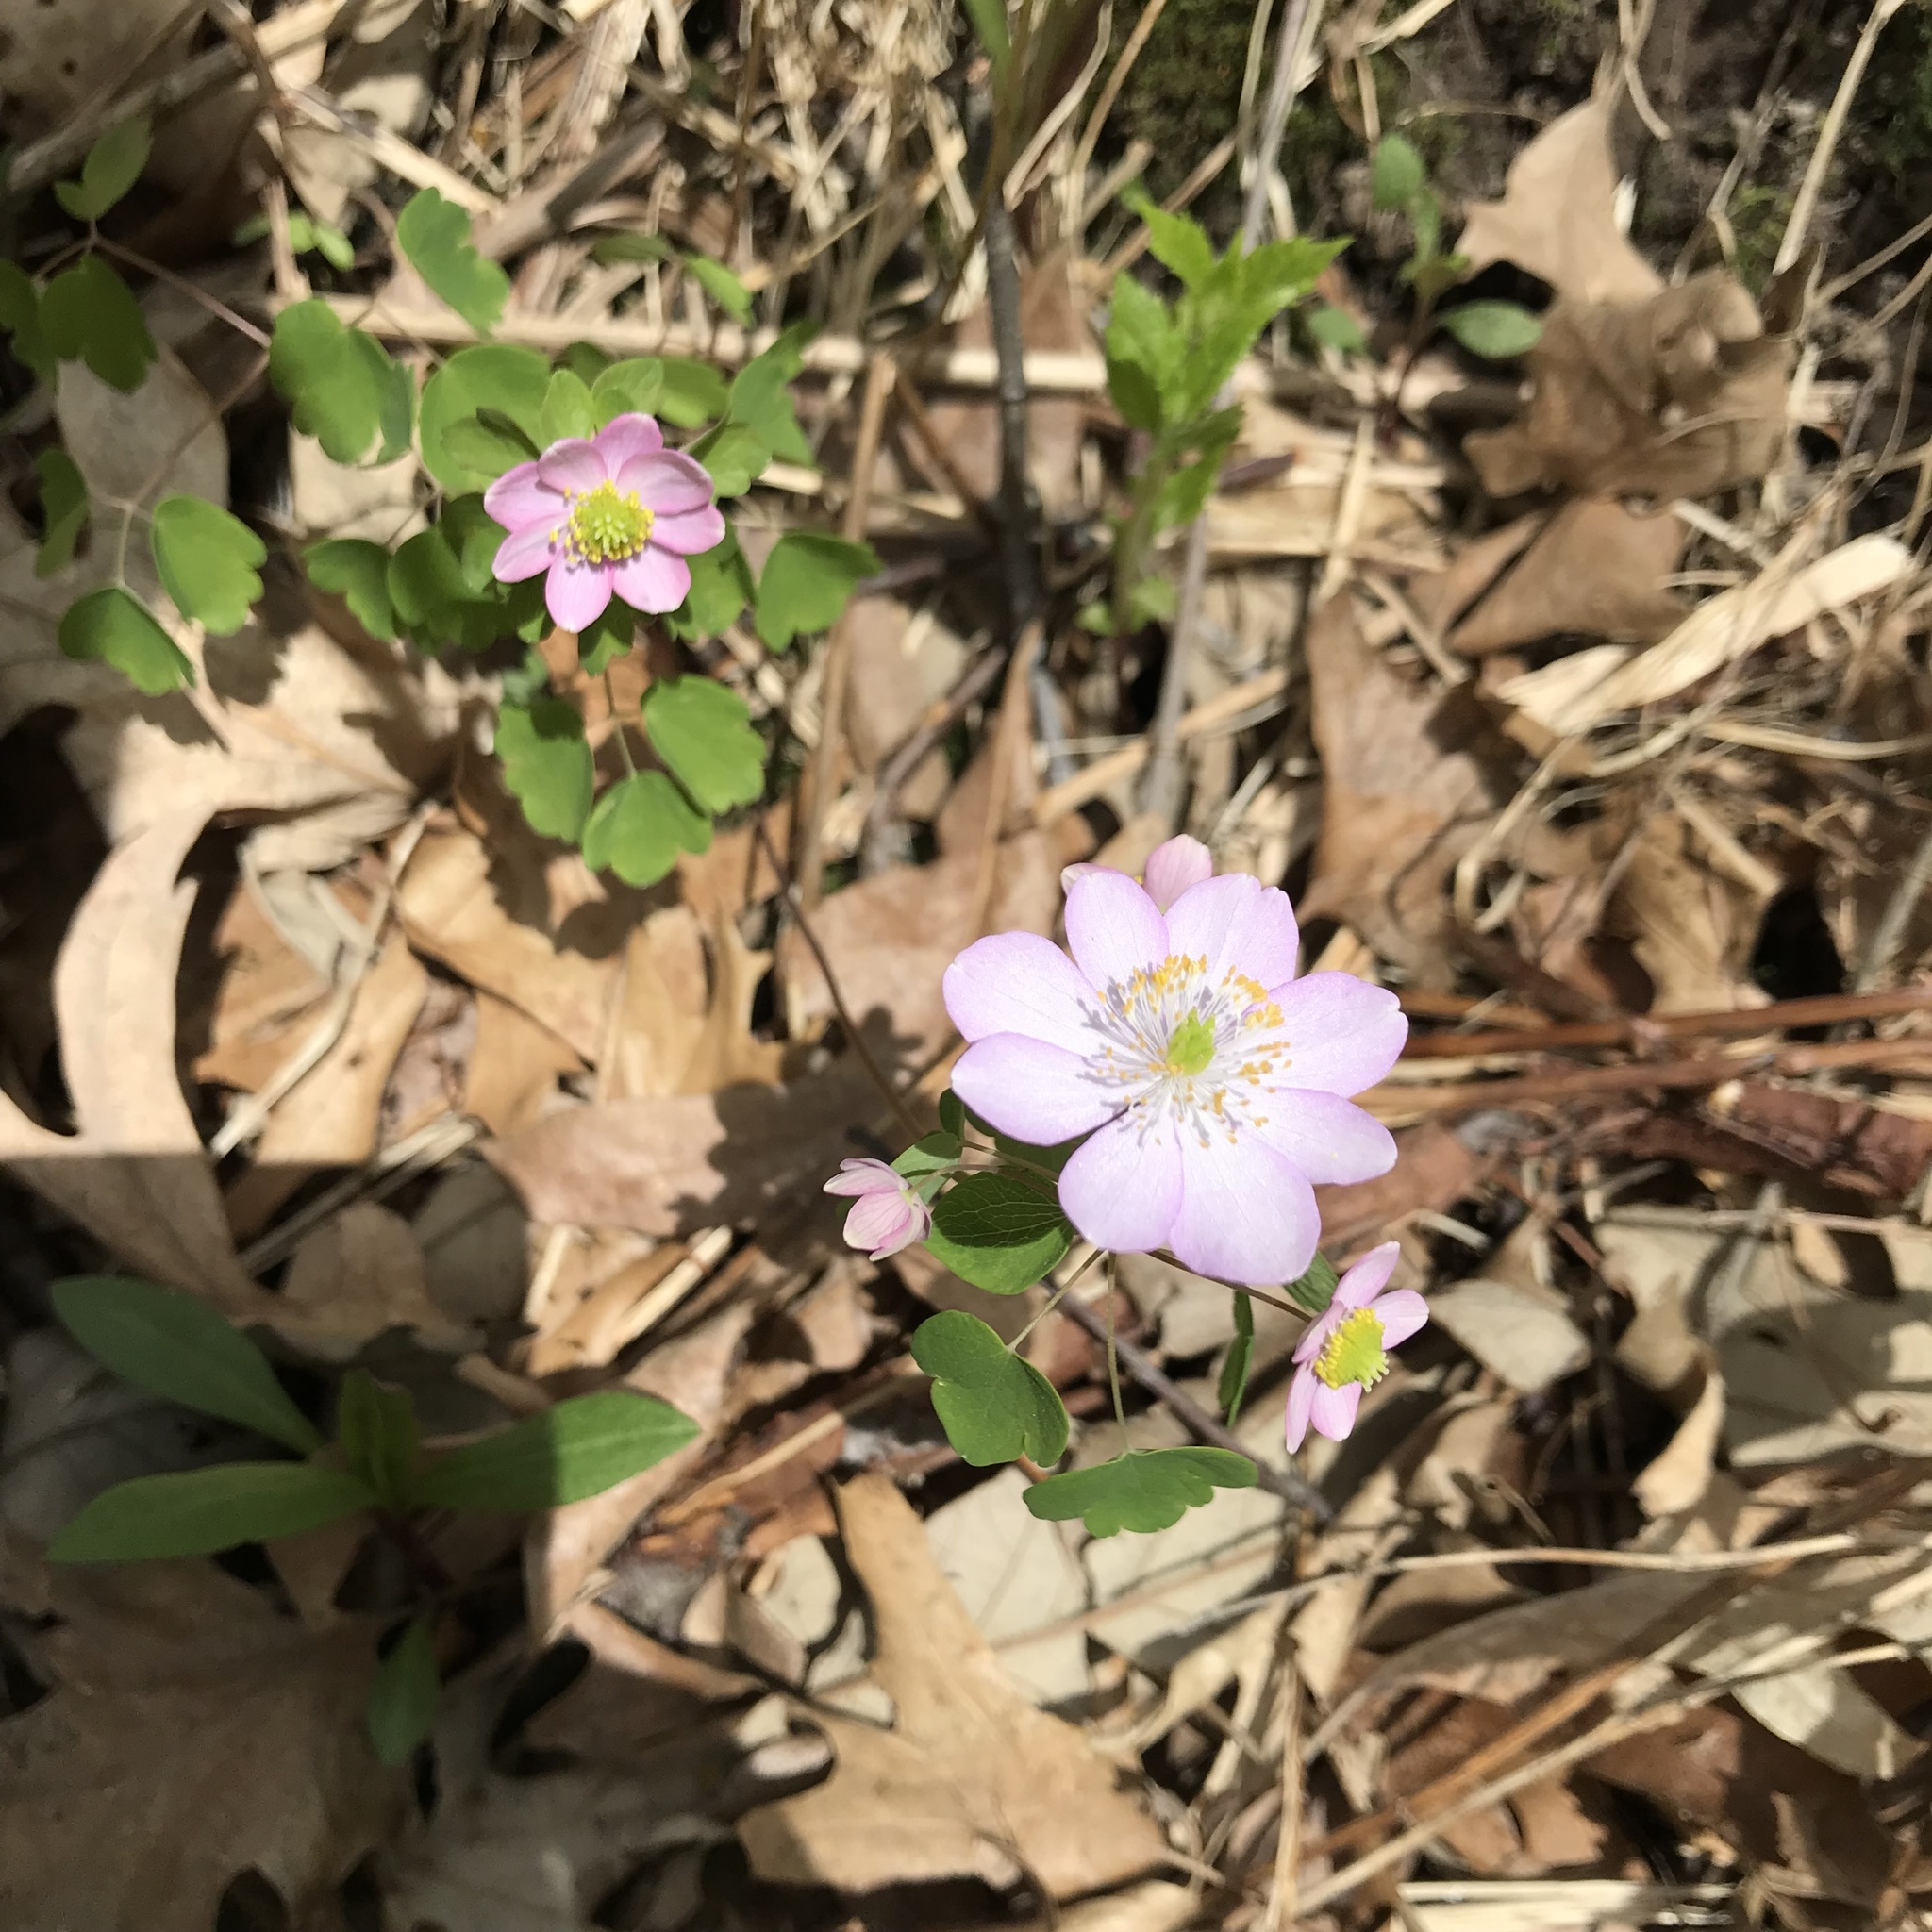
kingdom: Plantae
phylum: Tracheophyta
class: Magnoliopsida
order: Ranunculales
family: Ranunculaceae
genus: Thalictrum
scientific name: Thalictrum thalictroides
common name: Rue-anemone
